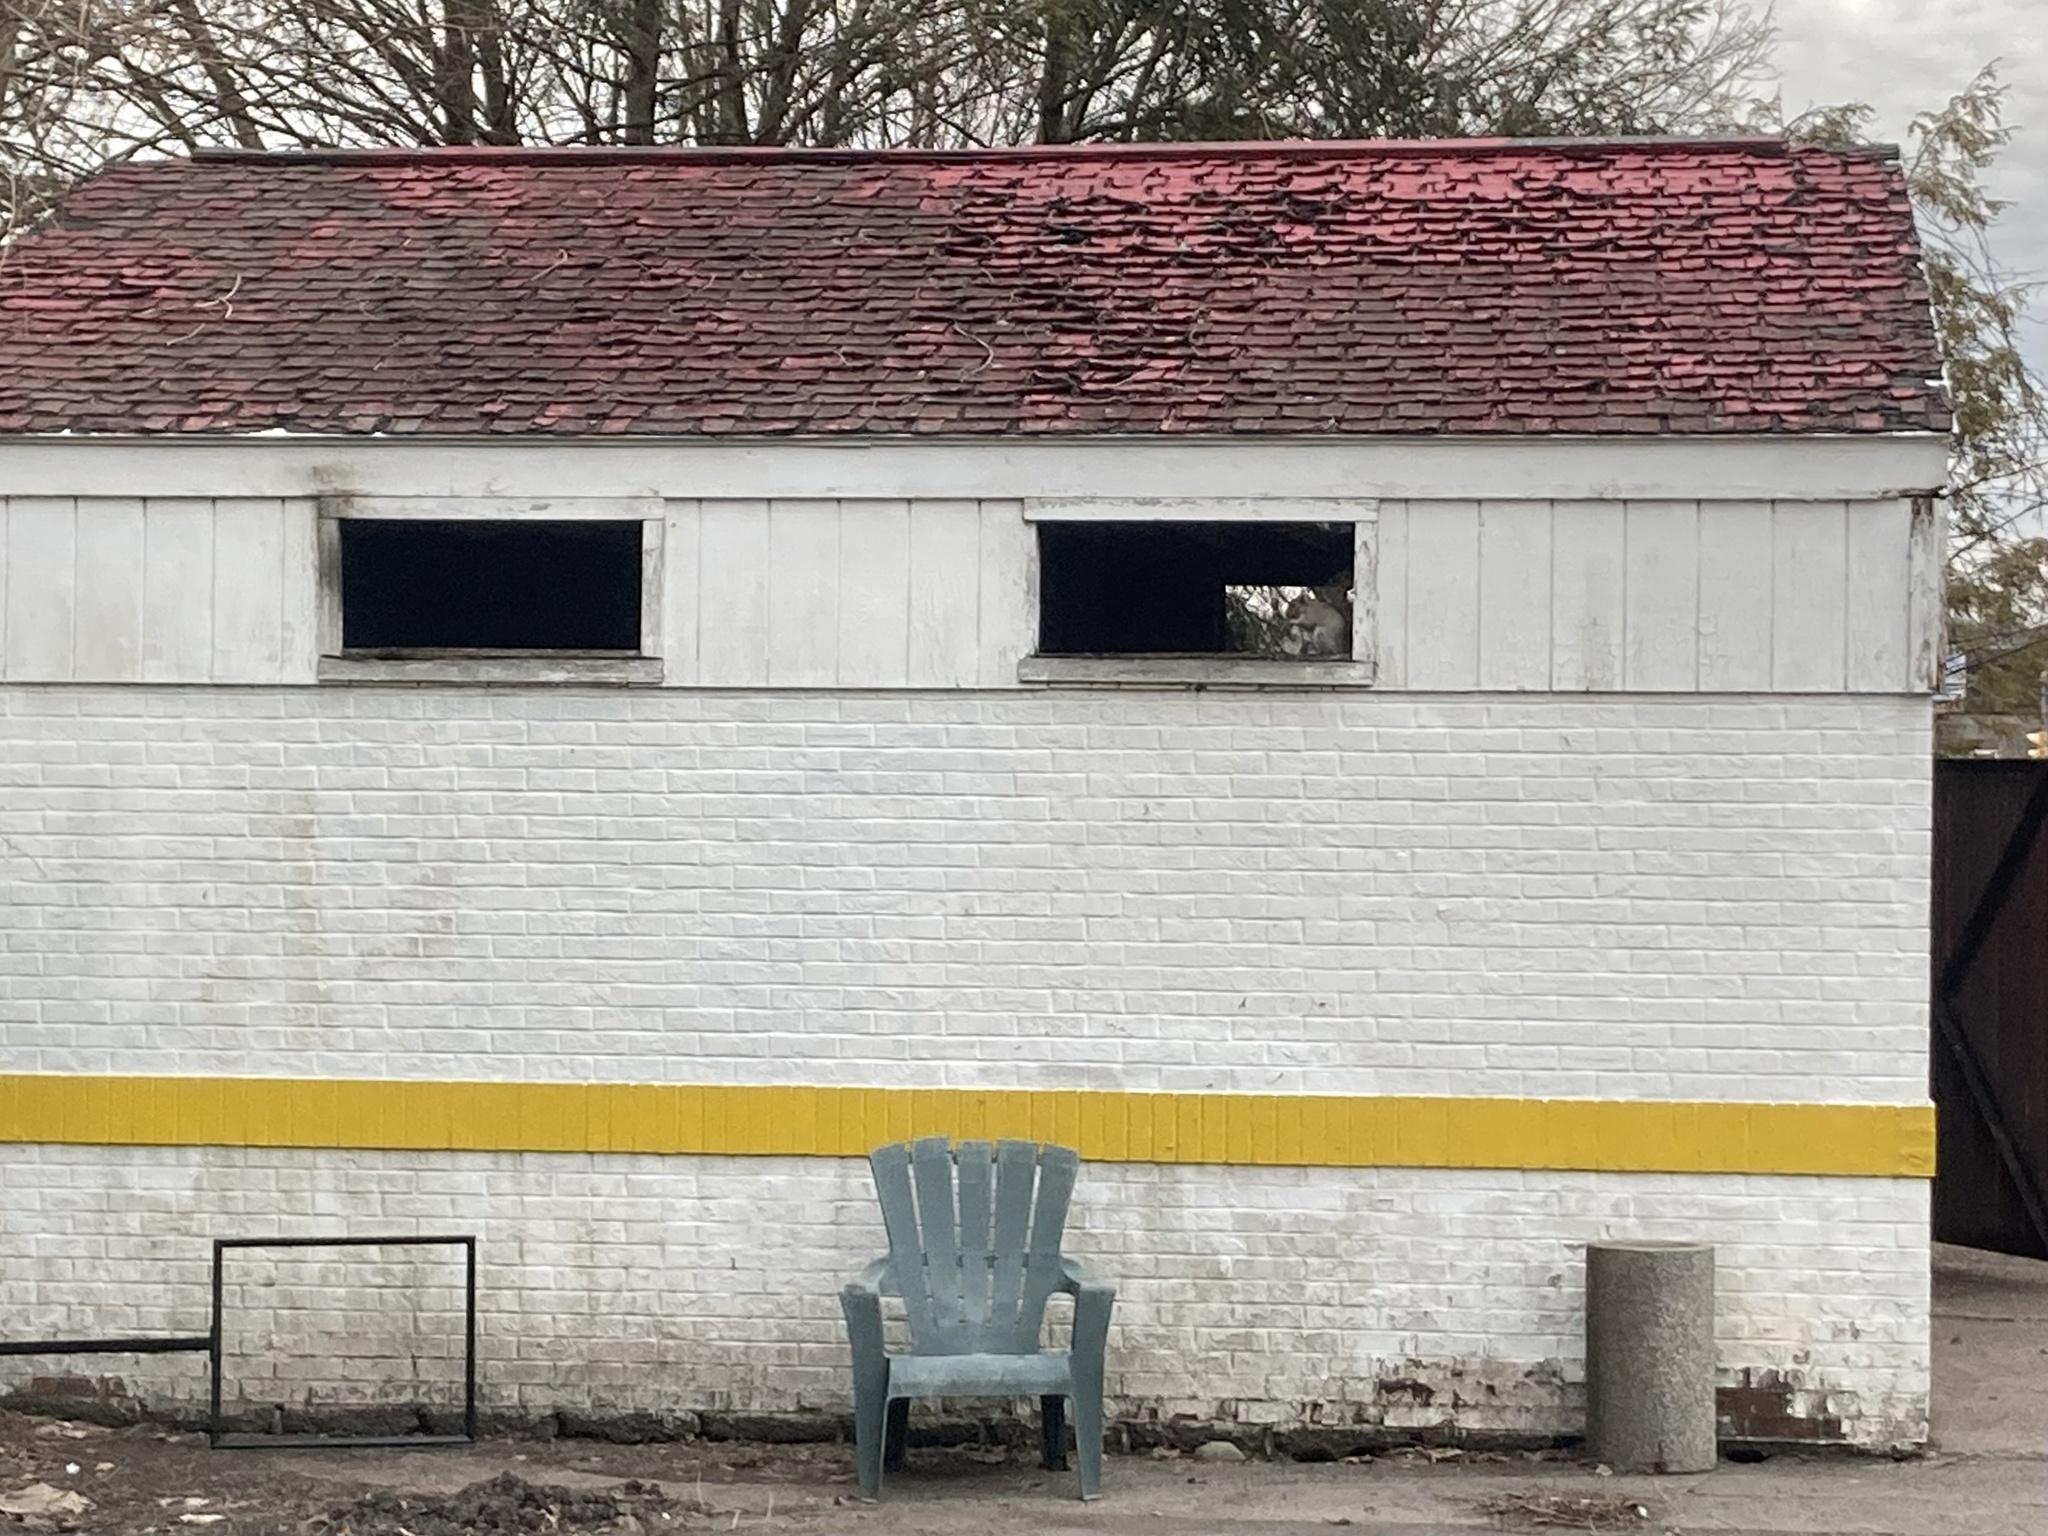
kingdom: Animalia
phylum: Chordata
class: Mammalia
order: Rodentia
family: Sciuridae
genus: Sciurus
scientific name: Sciurus carolinensis
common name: Eastern gray squirrel
